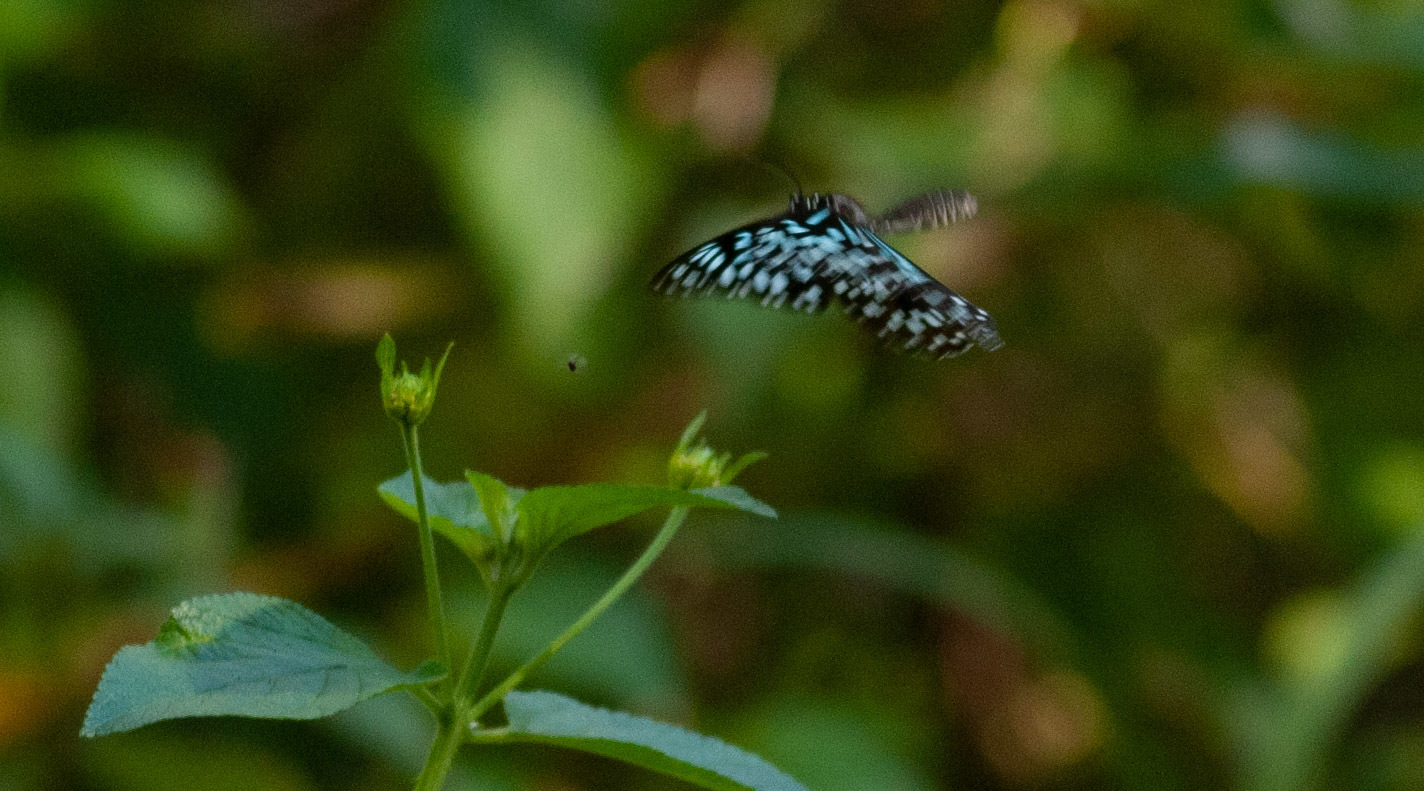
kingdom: Animalia
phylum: Arthropoda
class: Insecta
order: Lepidoptera
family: Nymphalidae
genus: Tirumala
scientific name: Tirumala hamata
